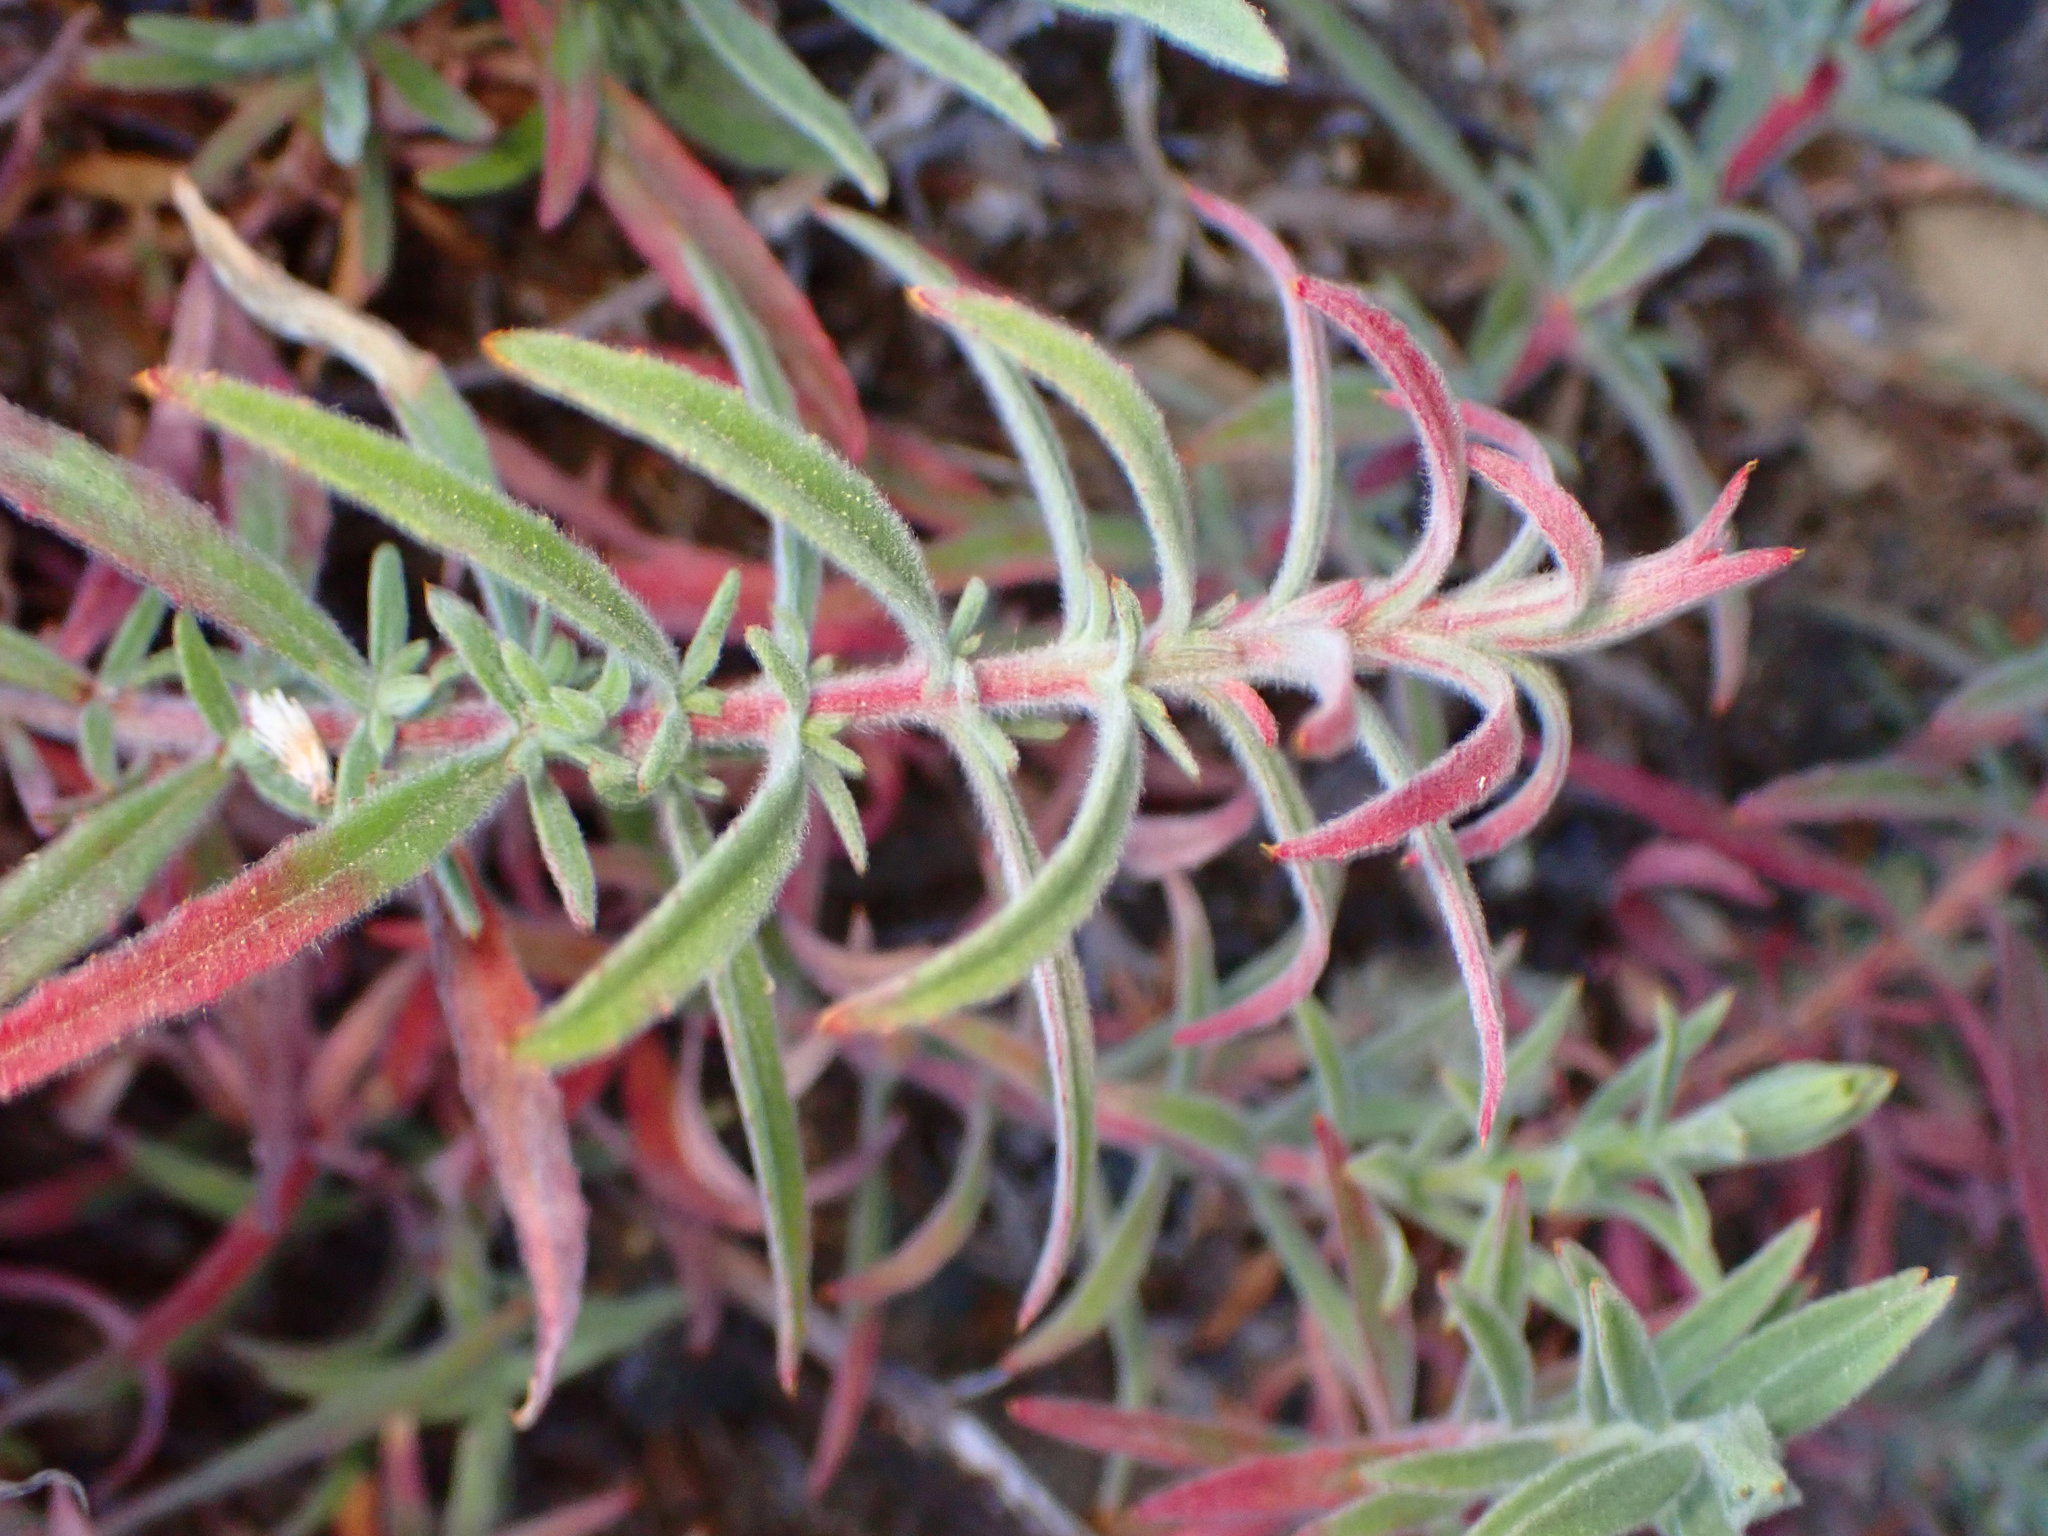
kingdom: Plantae
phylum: Tracheophyta
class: Magnoliopsida
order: Myrtales
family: Onagraceae
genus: Epilobium
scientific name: Epilobium canum
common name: California-fuchsia
